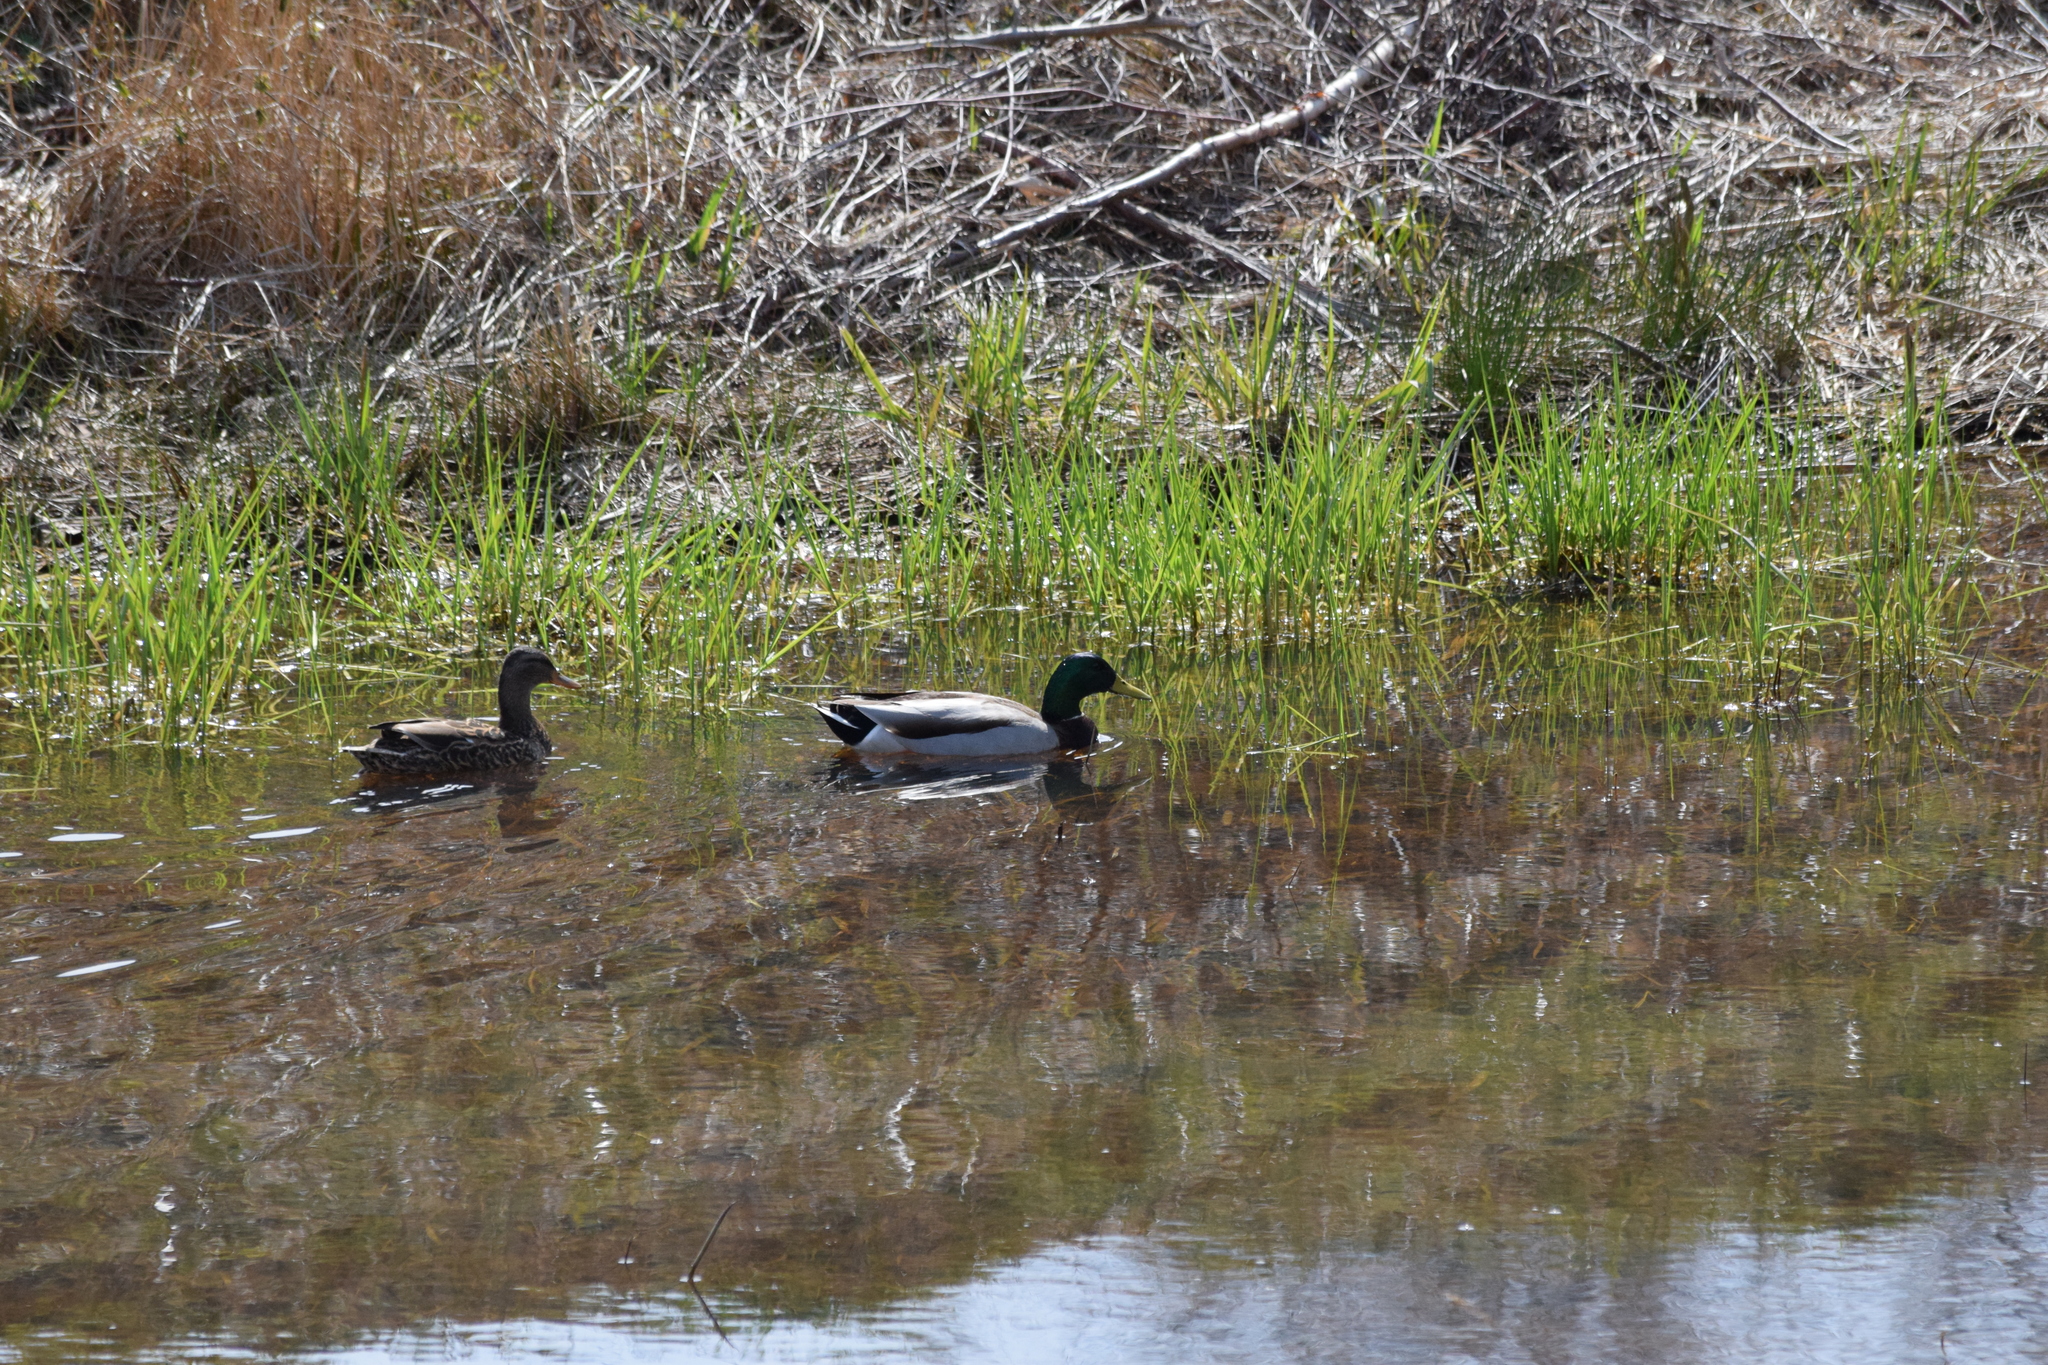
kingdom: Animalia
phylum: Chordata
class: Aves
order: Anseriformes
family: Anatidae
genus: Anas
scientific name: Anas platyrhynchos
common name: Mallard
